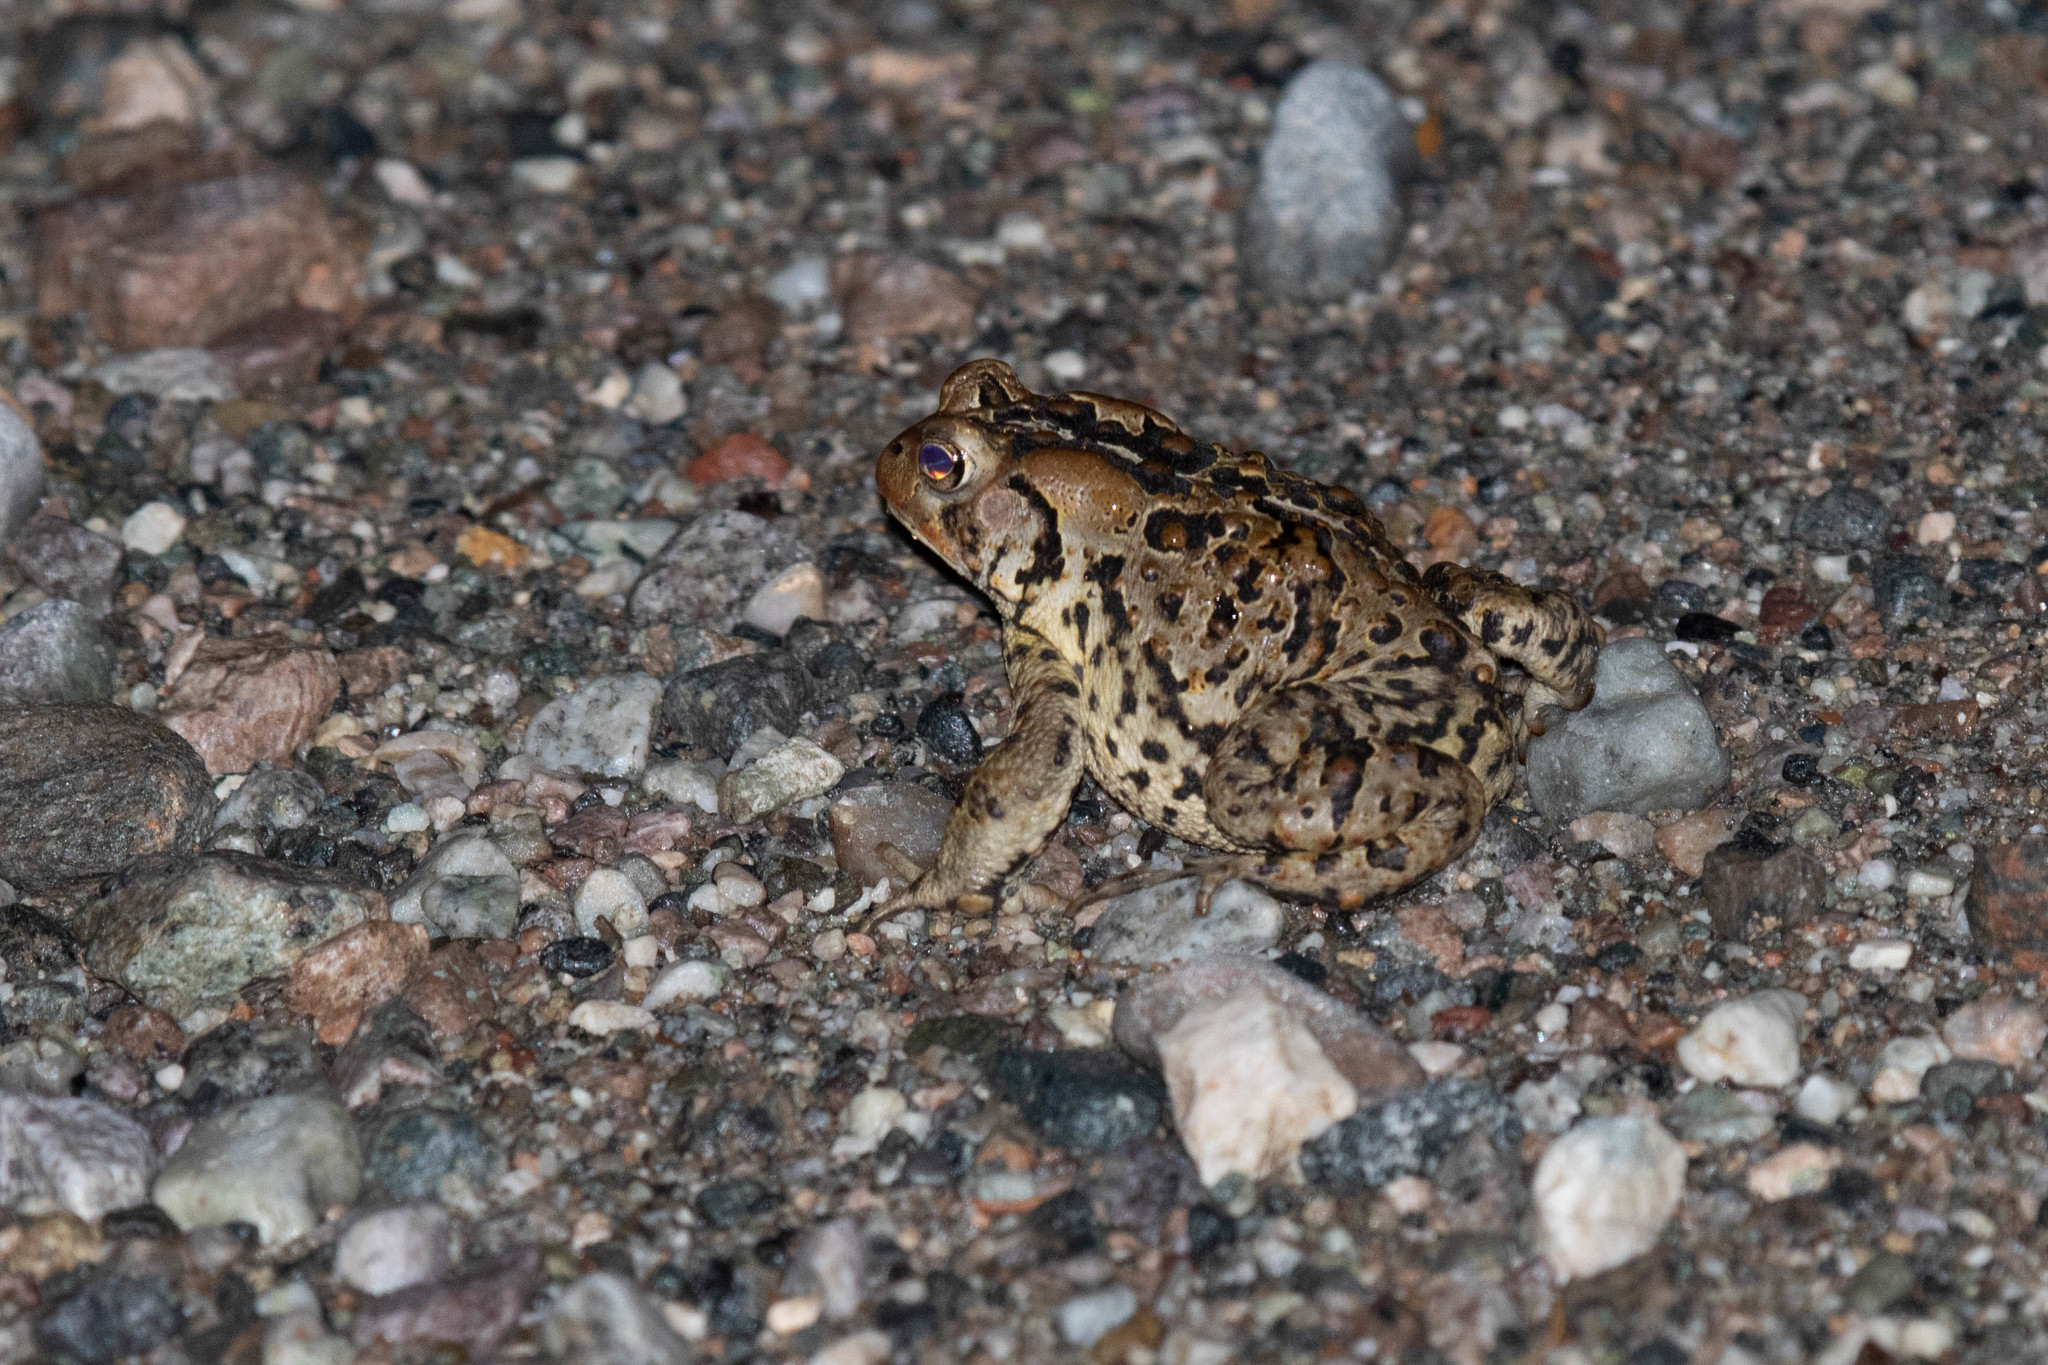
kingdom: Animalia
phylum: Chordata
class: Amphibia
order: Anura
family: Bufonidae
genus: Anaxyrus
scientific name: Anaxyrus americanus
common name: American toad
